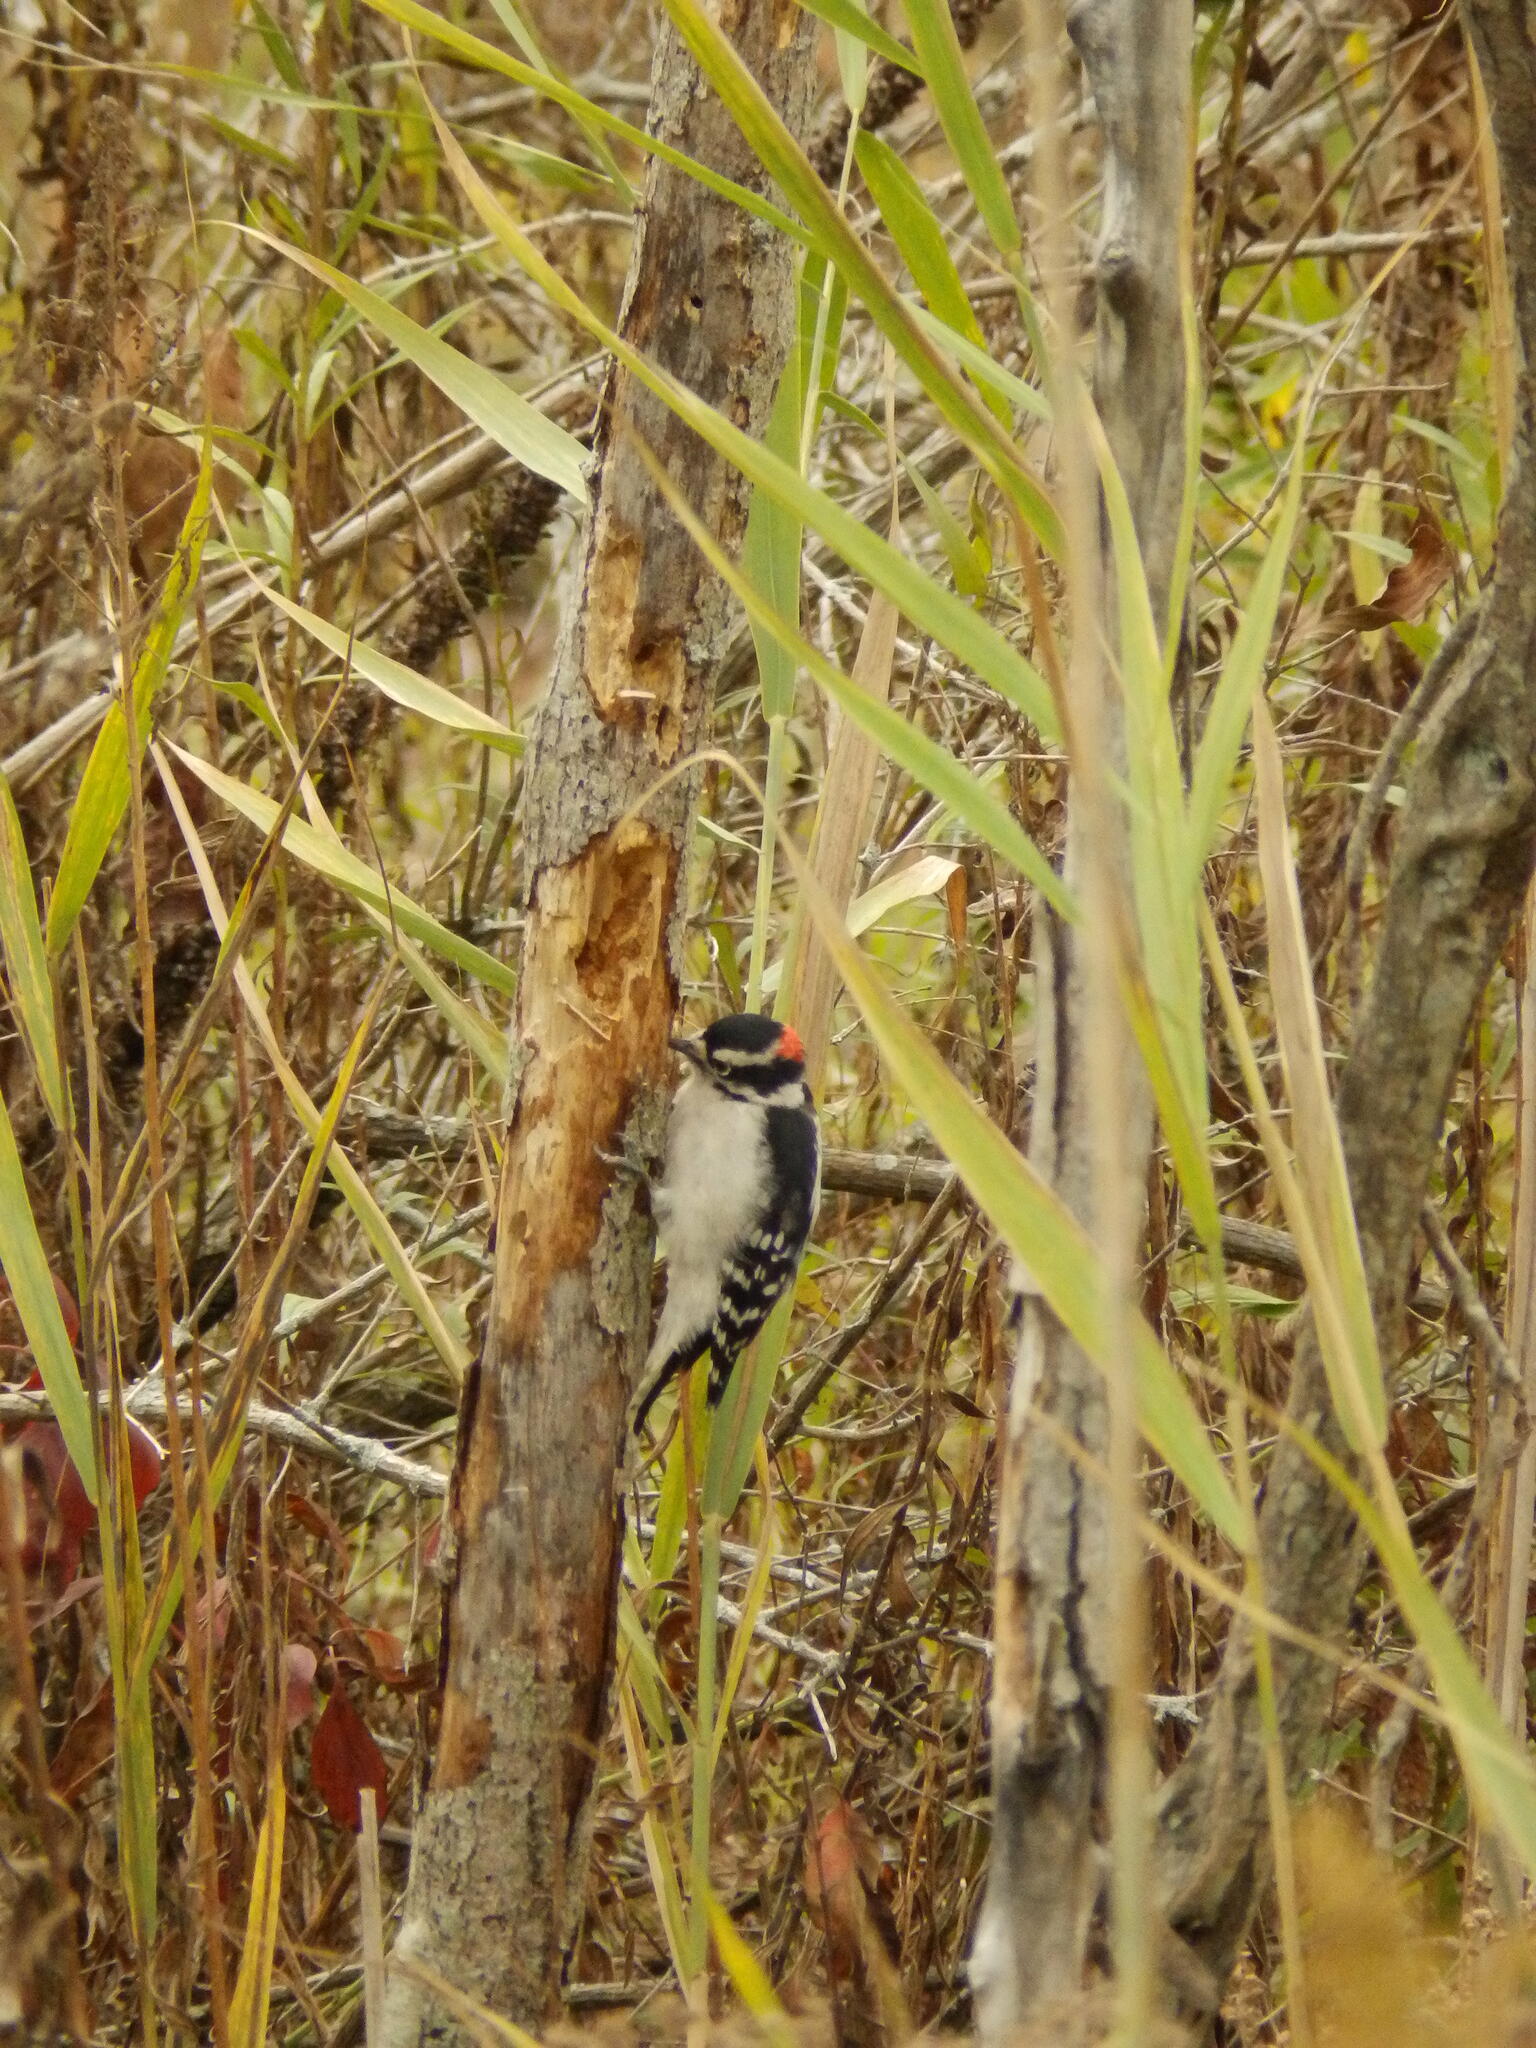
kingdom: Animalia
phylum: Chordata
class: Aves
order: Piciformes
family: Picidae
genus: Dryobates
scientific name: Dryobates pubescens
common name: Downy woodpecker
